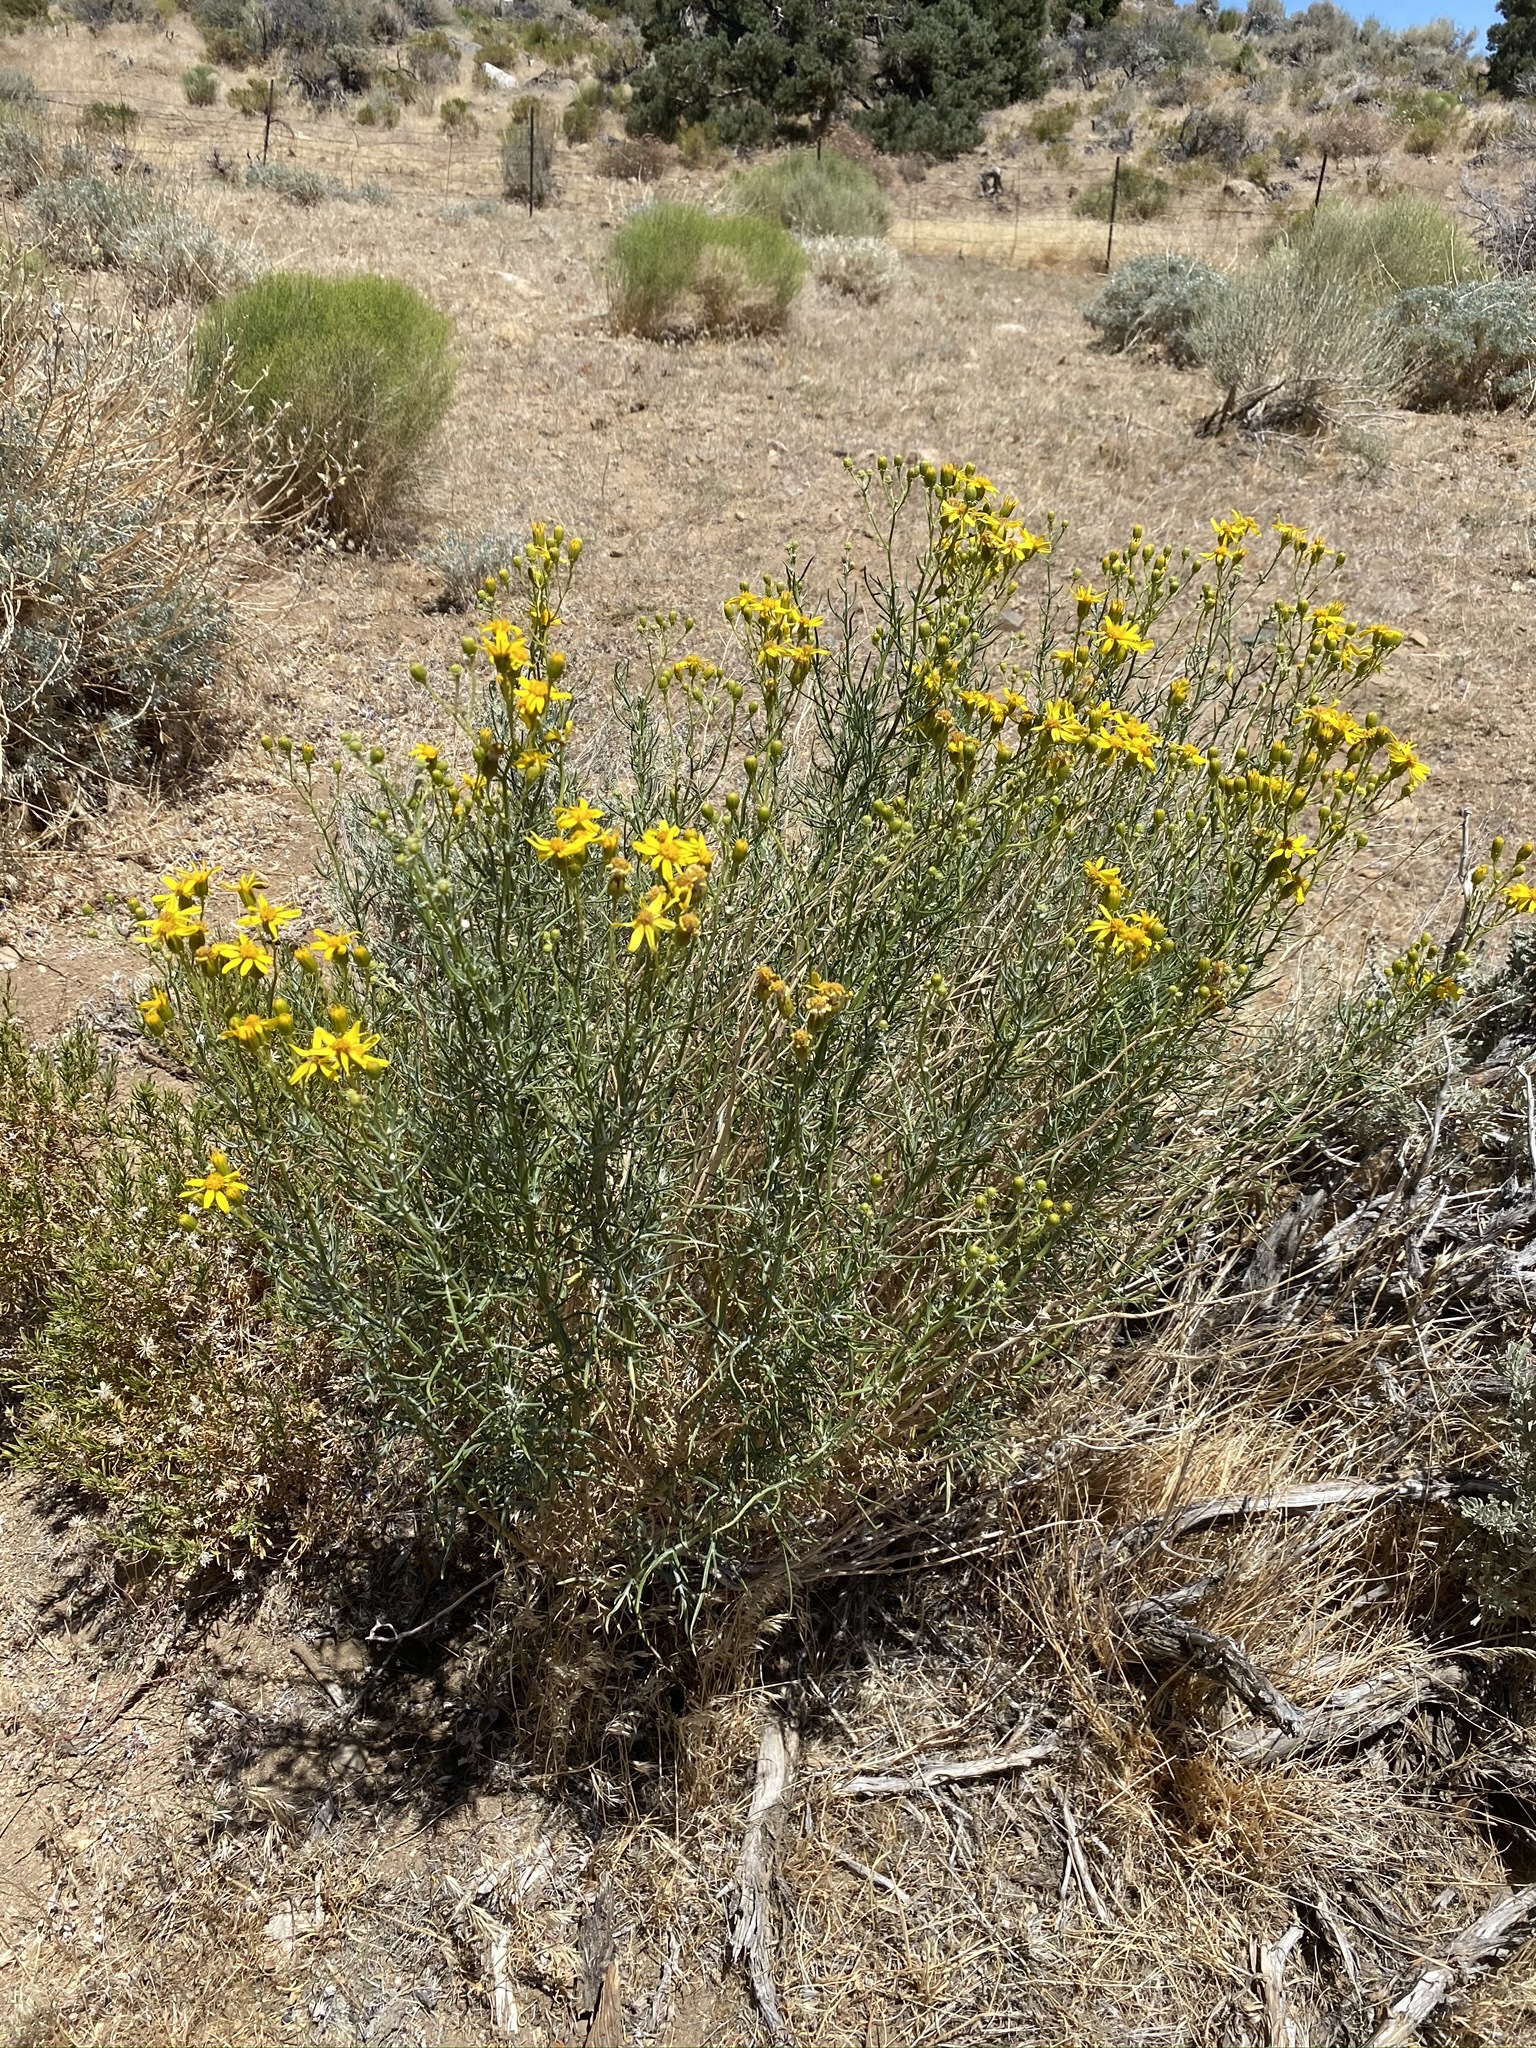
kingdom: Plantae
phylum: Tracheophyta
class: Magnoliopsida
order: Asterales
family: Asteraceae
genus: Senecio
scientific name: Senecio flaccidus
